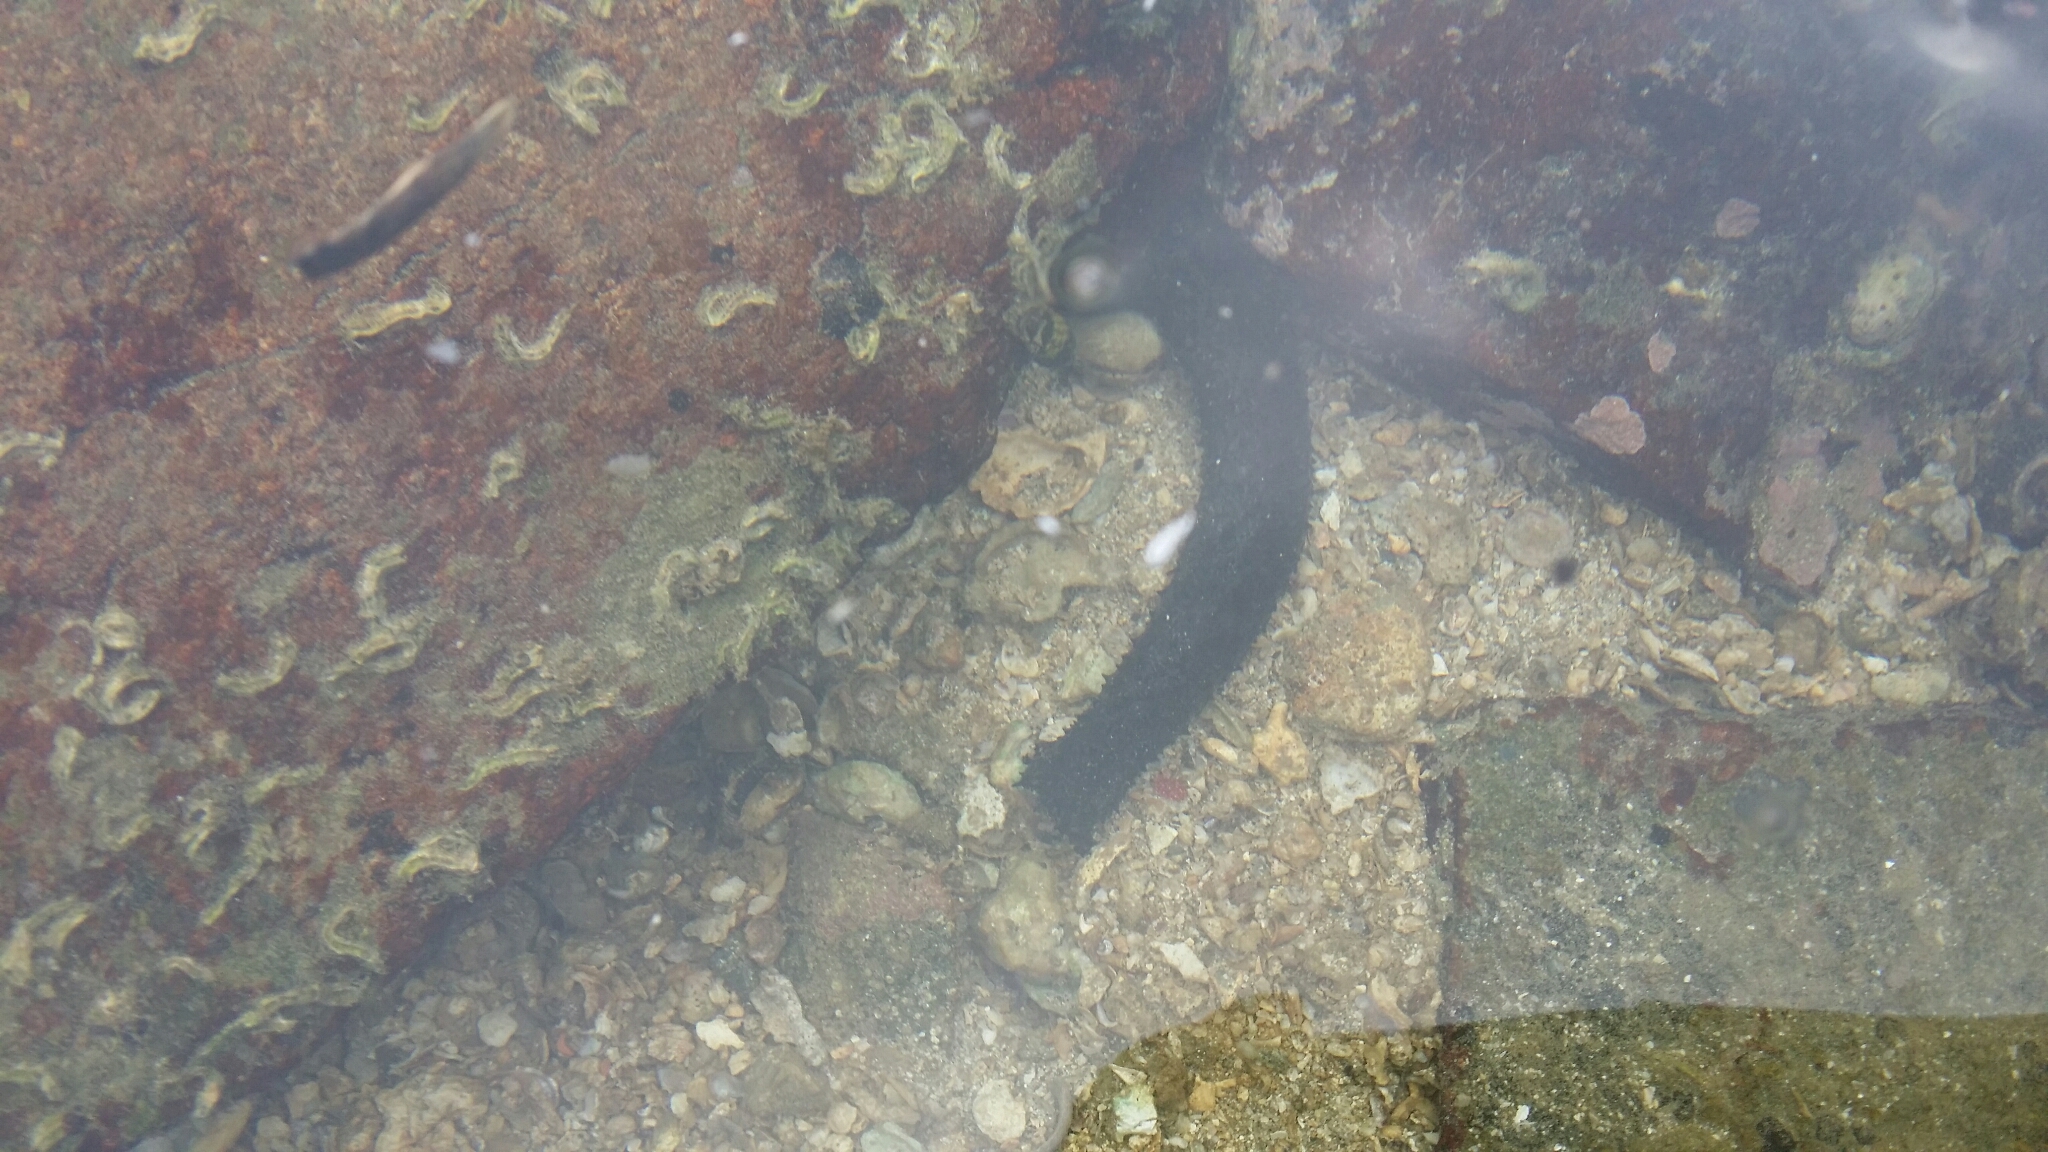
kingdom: Animalia
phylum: Echinodermata
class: Holothuroidea
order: Holothuriida
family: Holothuriidae
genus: Holothuria
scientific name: Holothuria leucospilota
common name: White thread fish
